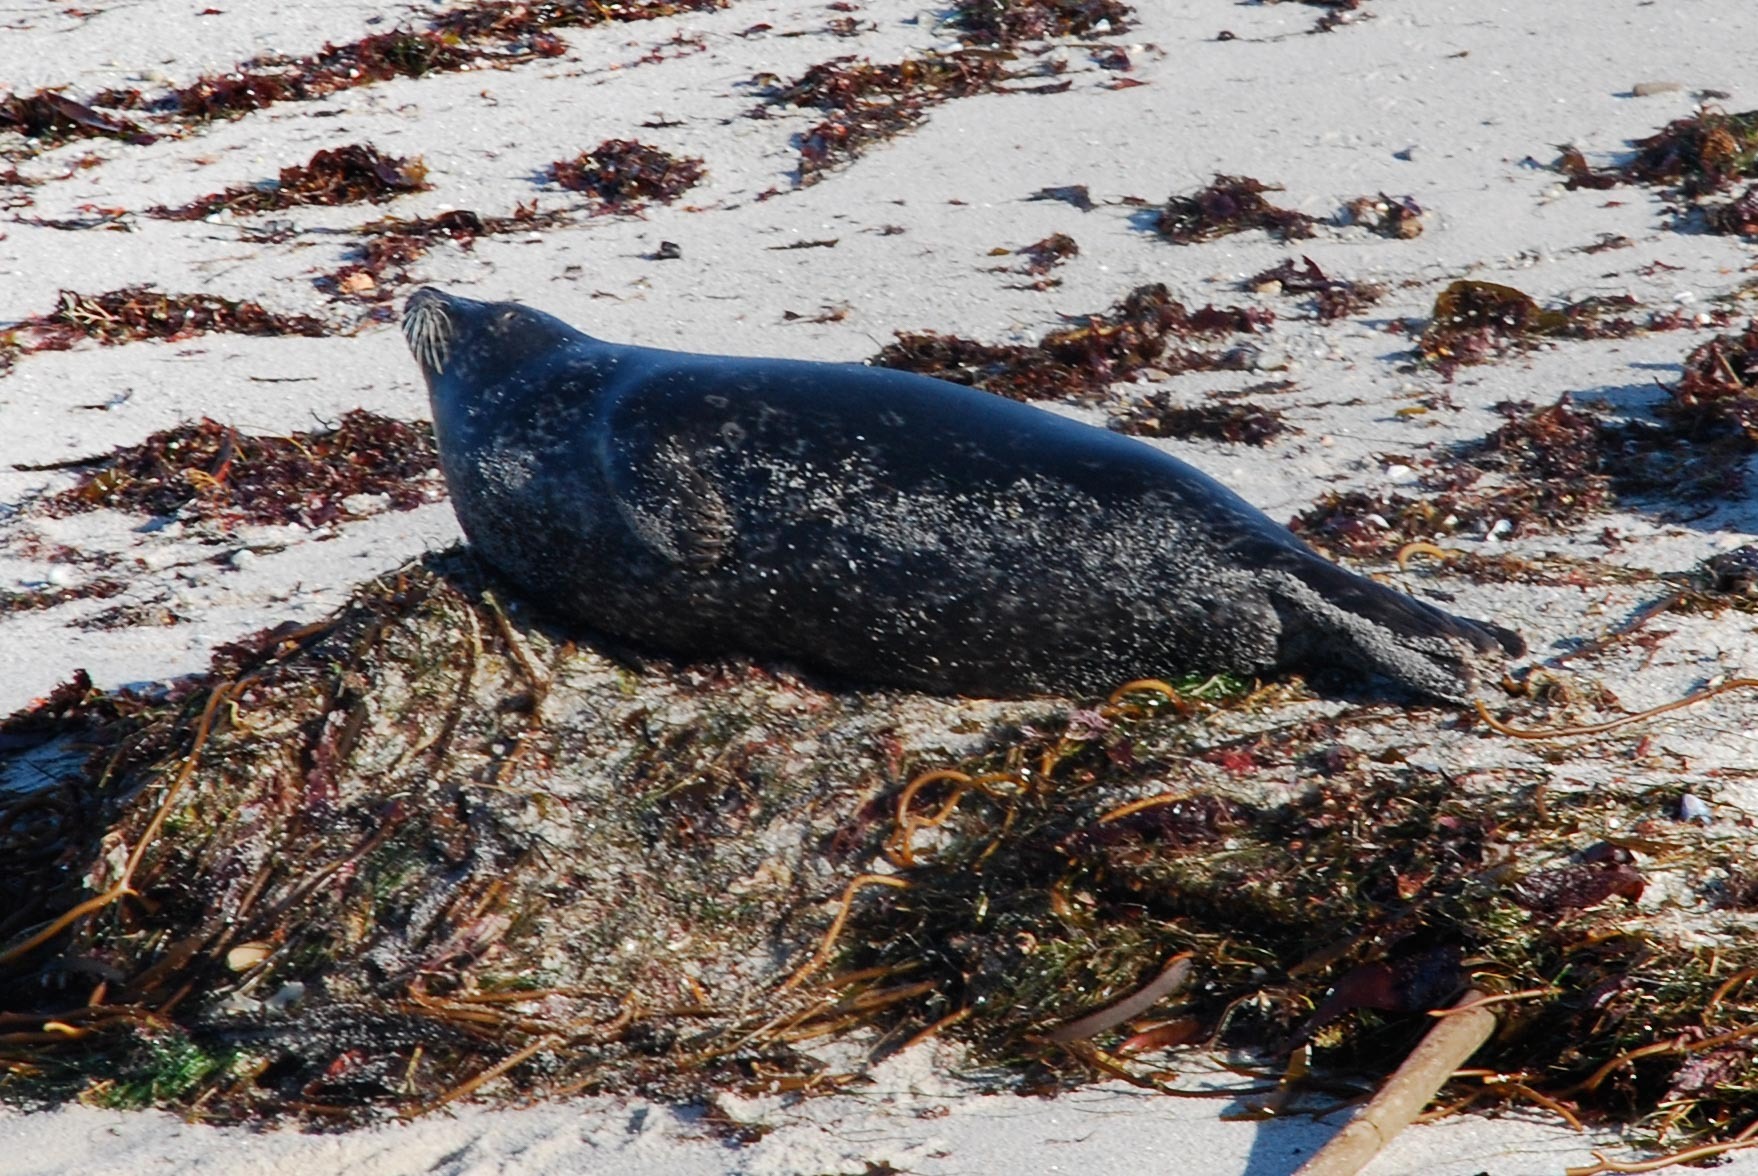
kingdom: Animalia
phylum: Chordata
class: Mammalia
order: Carnivora
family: Phocidae
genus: Phoca
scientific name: Phoca vitulina
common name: Harbor seal
